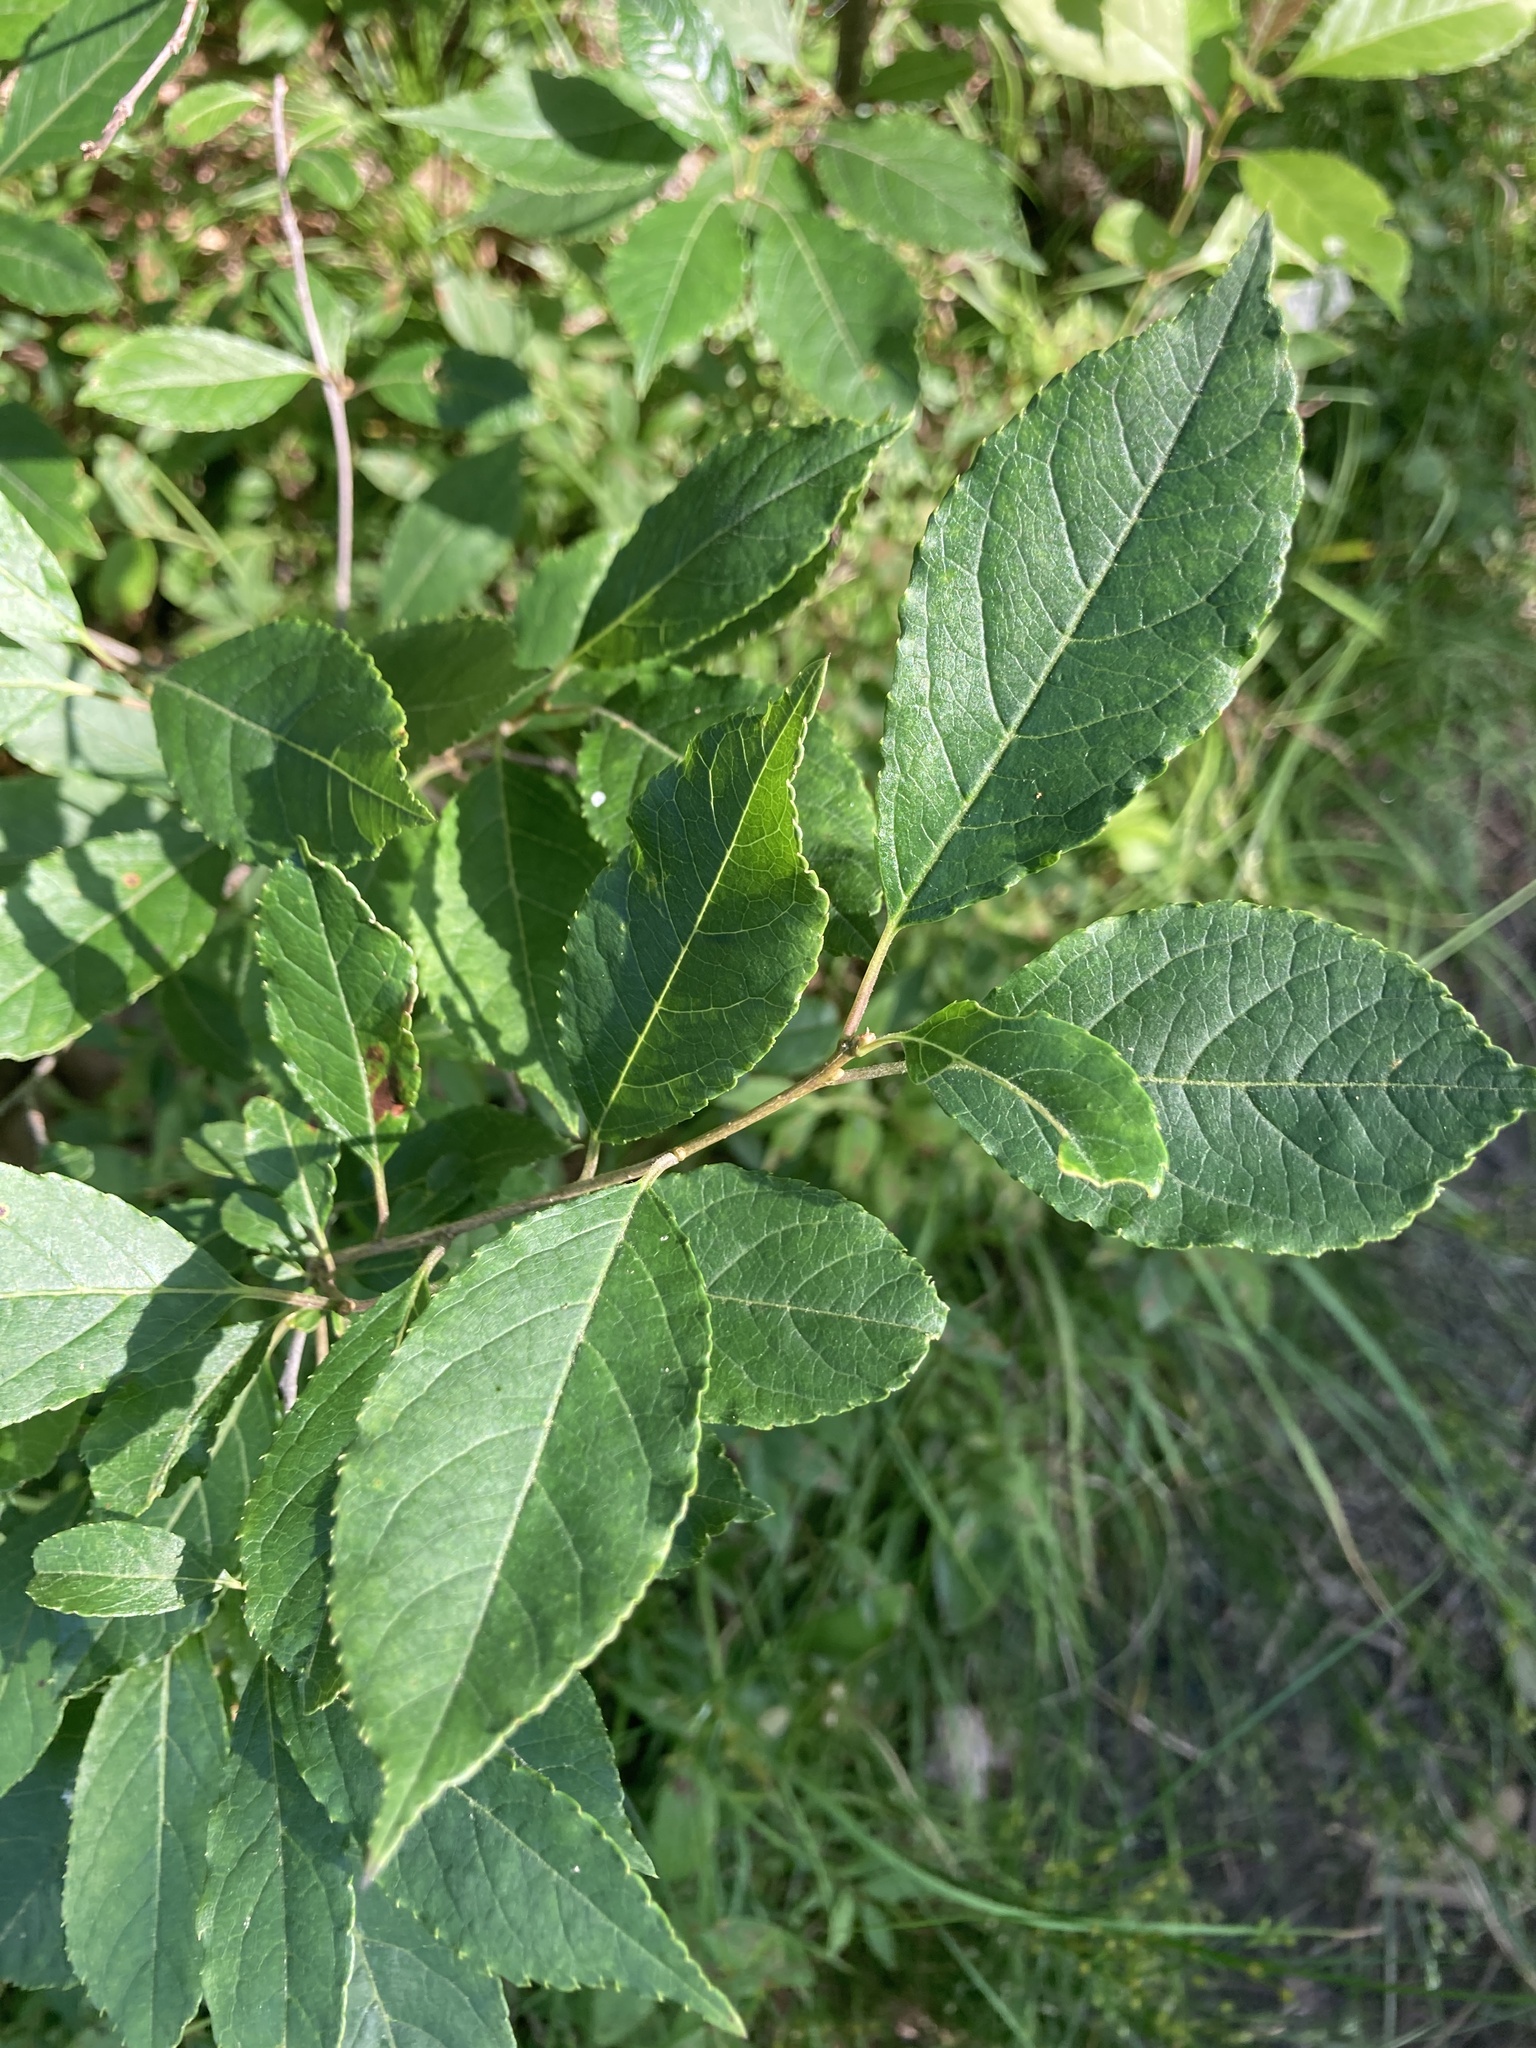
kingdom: Plantae
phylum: Tracheophyta
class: Magnoliopsida
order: Aquifoliales
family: Aquifoliaceae
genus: Ilex
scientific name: Ilex verticillata
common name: Virginia winterberry
